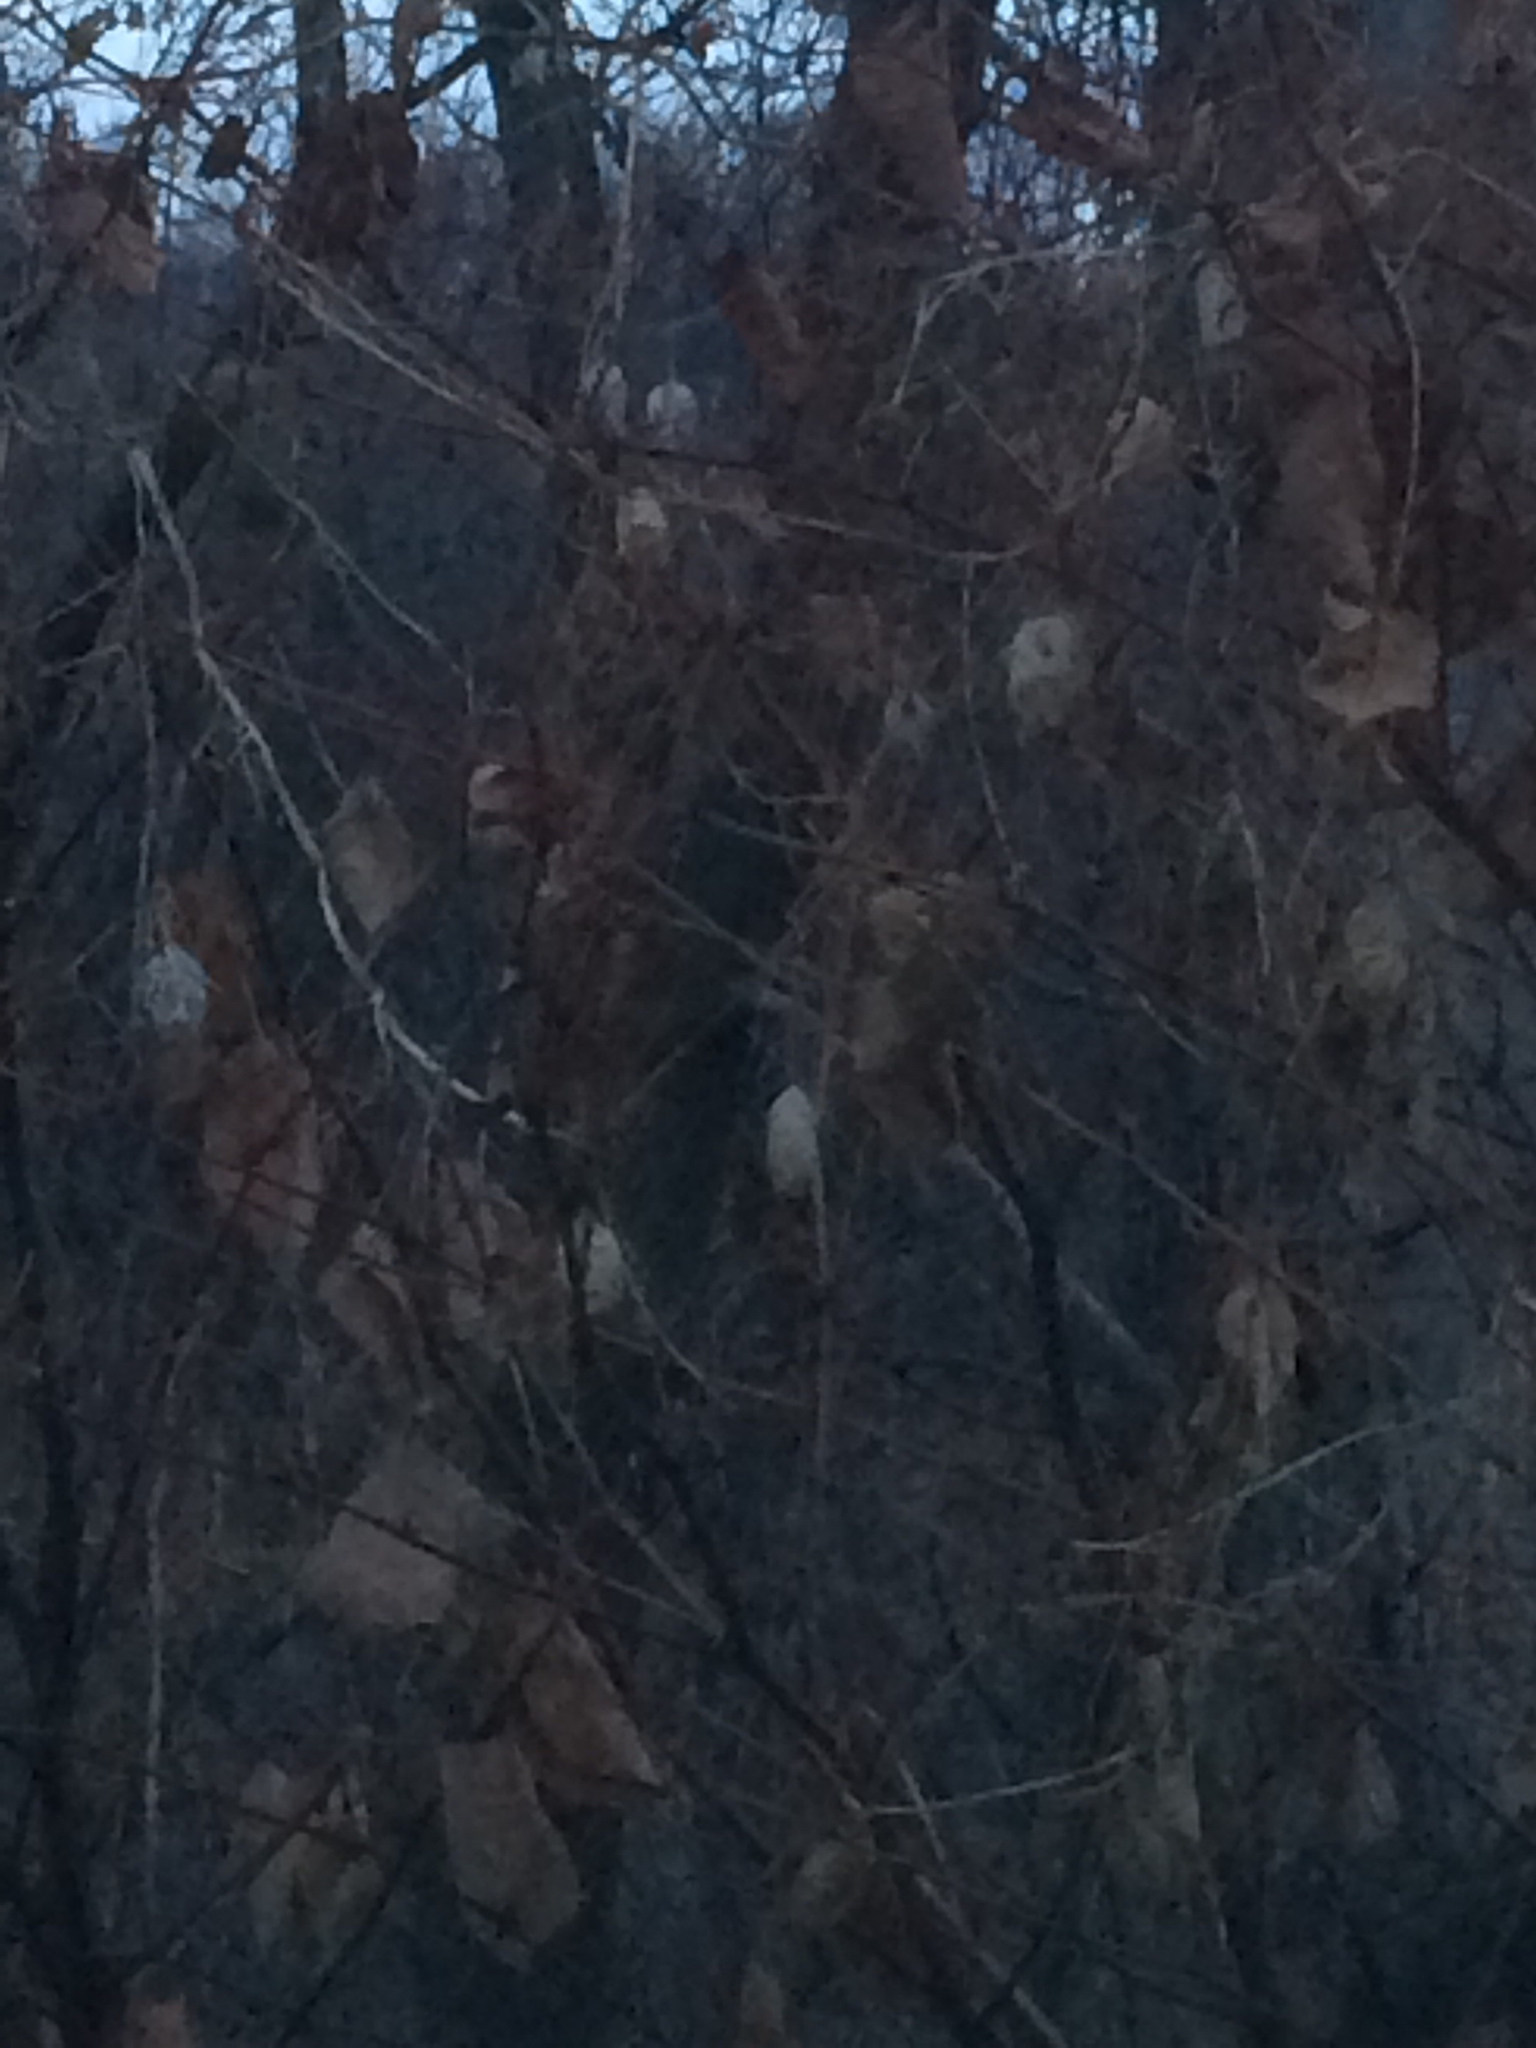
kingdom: Plantae
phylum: Tracheophyta
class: Magnoliopsida
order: Cucurbitales
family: Cucurbitaceae
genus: Echinocystis
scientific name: Echinocystis lobata
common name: Wild cucumber
